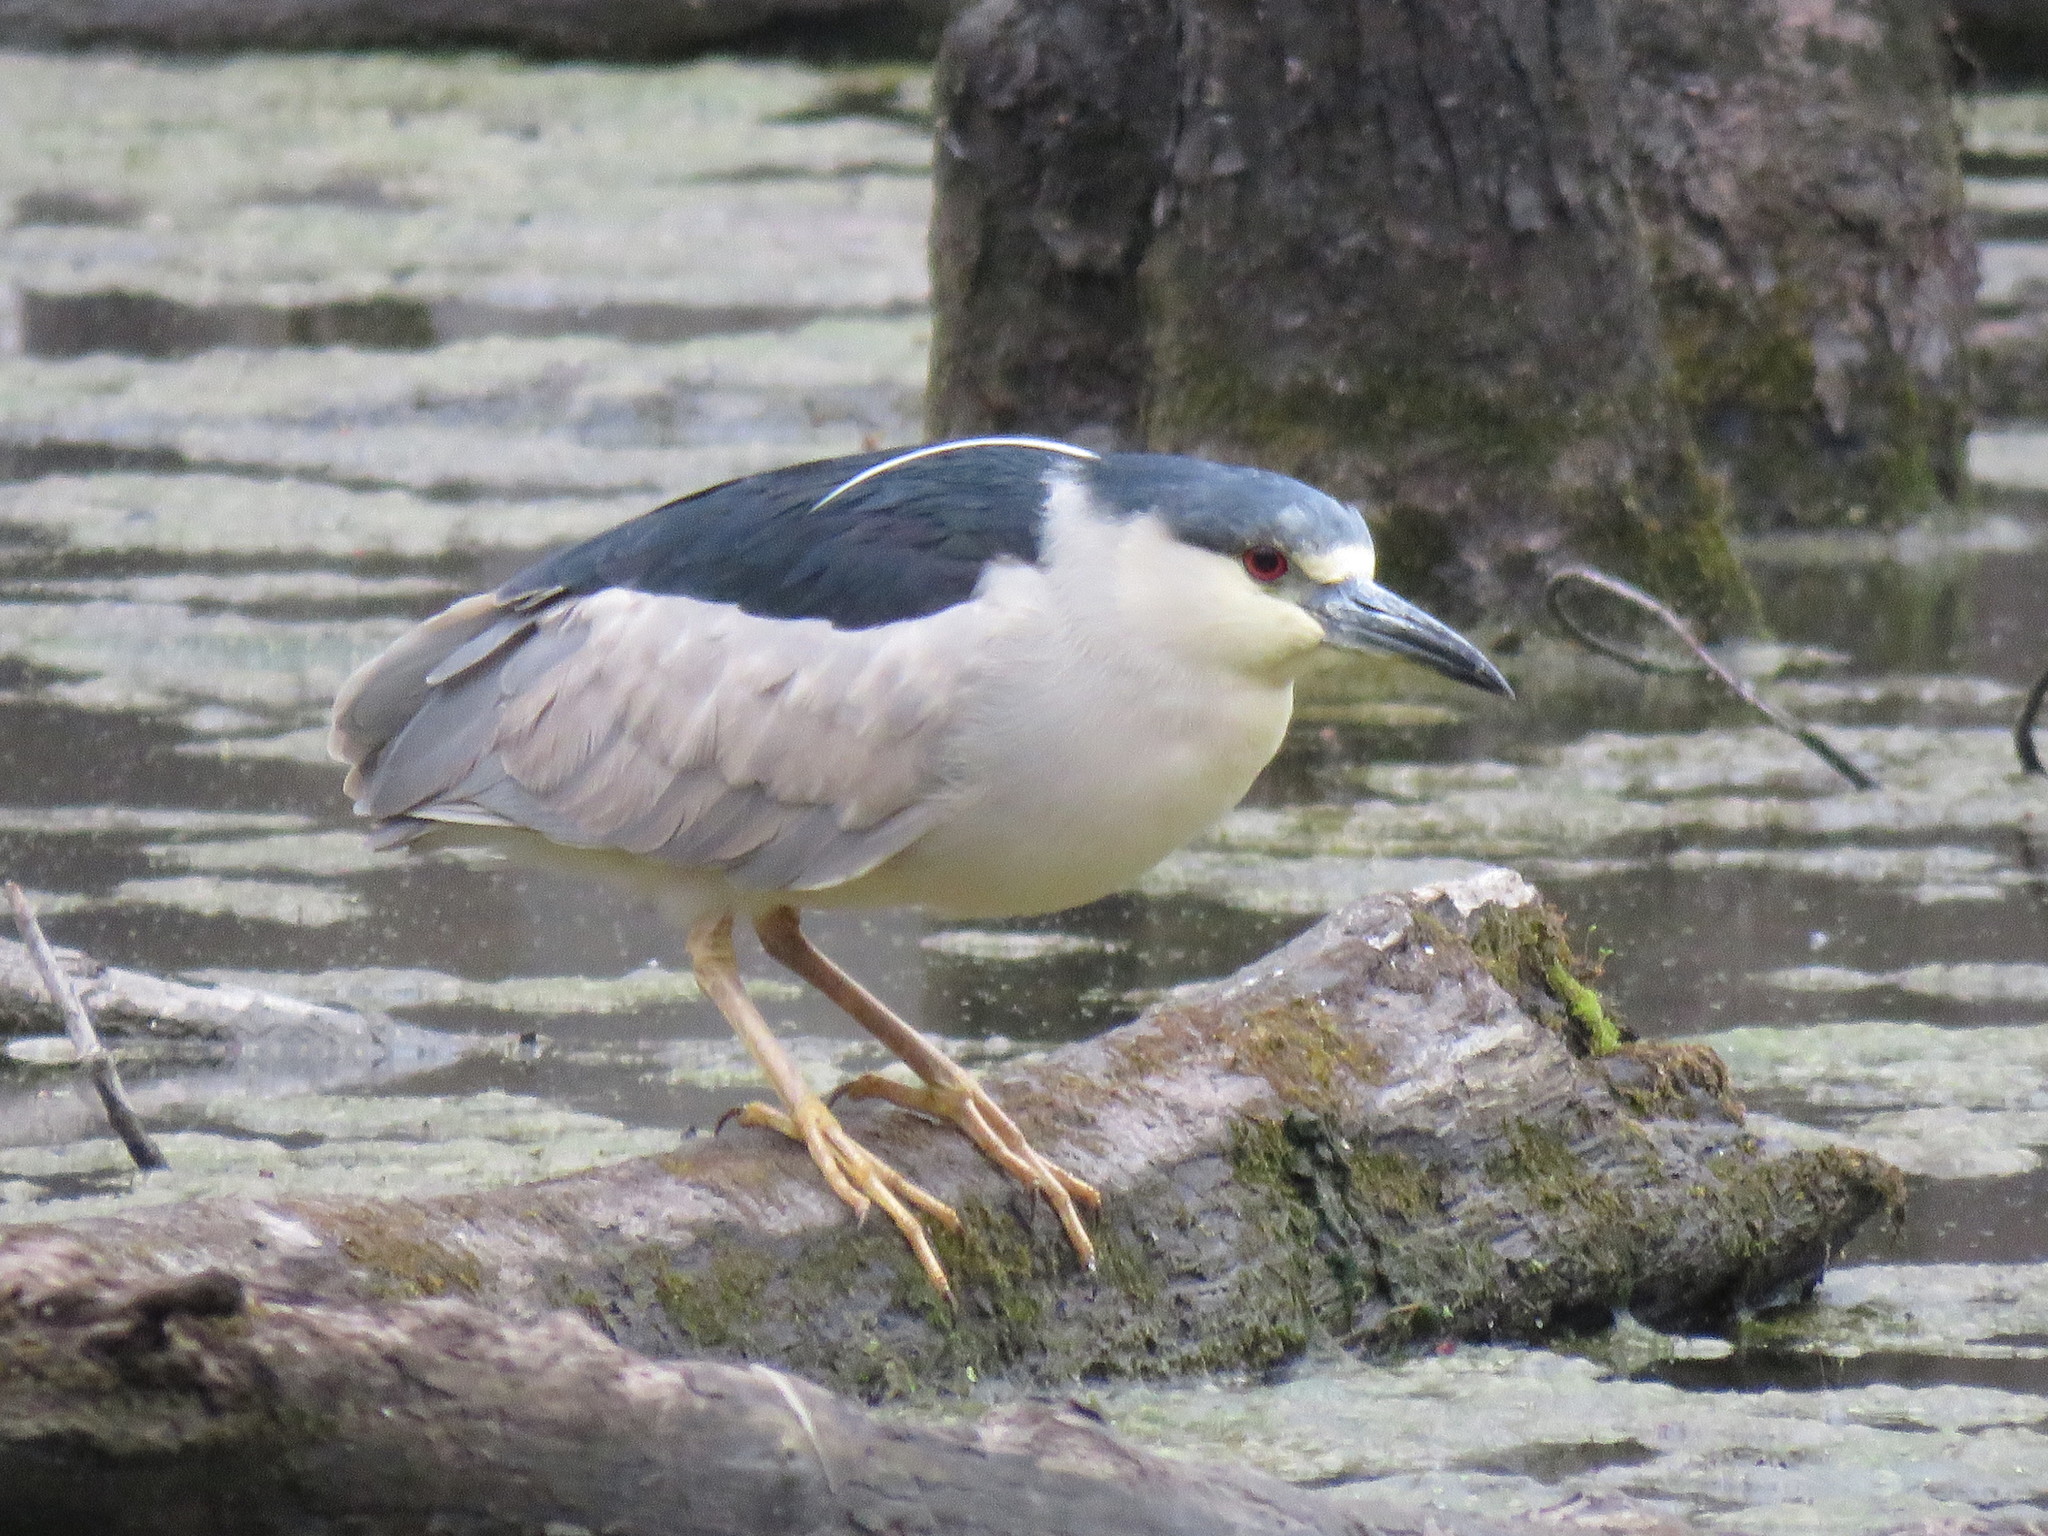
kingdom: Animalia
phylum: Chordata
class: Aves
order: Pelecaniformes
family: Ardeidae
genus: Nycticorax
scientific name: Nycticorax nycticorax
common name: Black-crowned night heron
